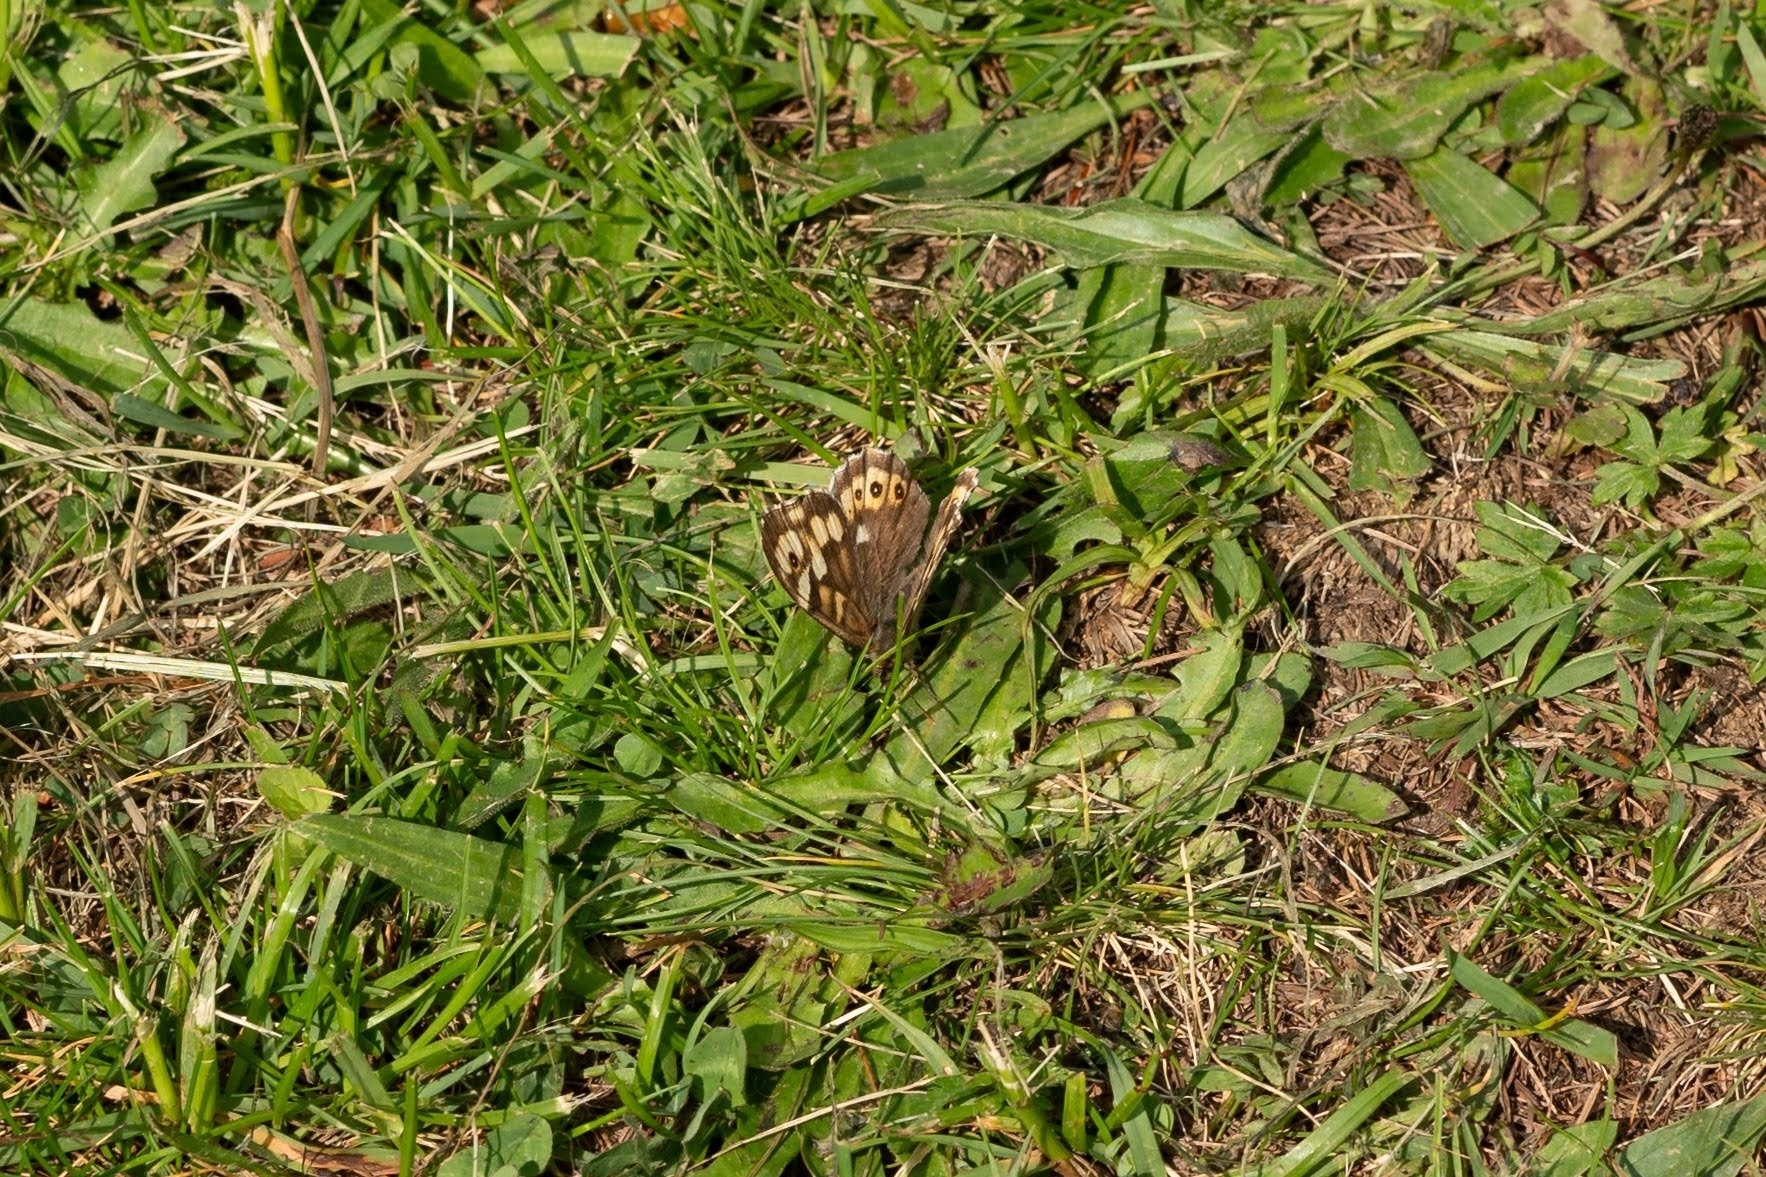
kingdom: Animalia
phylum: Arthropoda
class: Insecta
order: Lepidoptera
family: Nymphalidae
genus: Pararge
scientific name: Pararge aegeria
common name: Speckled wood
